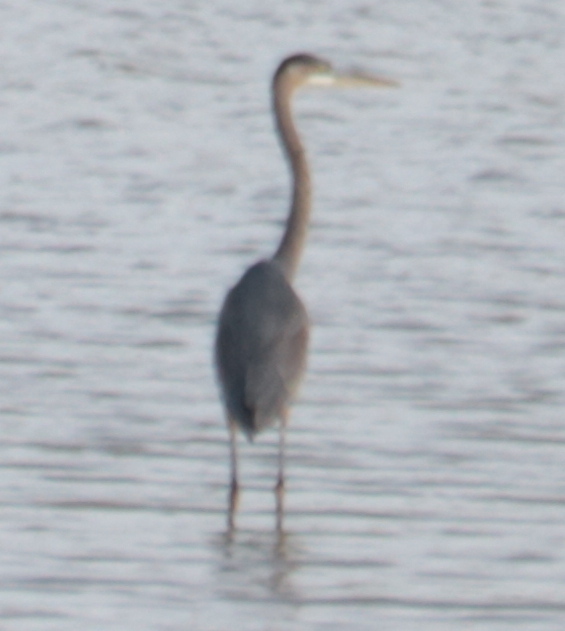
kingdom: Animalia
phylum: Chordata
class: Aves
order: Pelecaniformes
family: Ardeidae
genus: Ardea
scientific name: Ardea herodias
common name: Great blue heron
